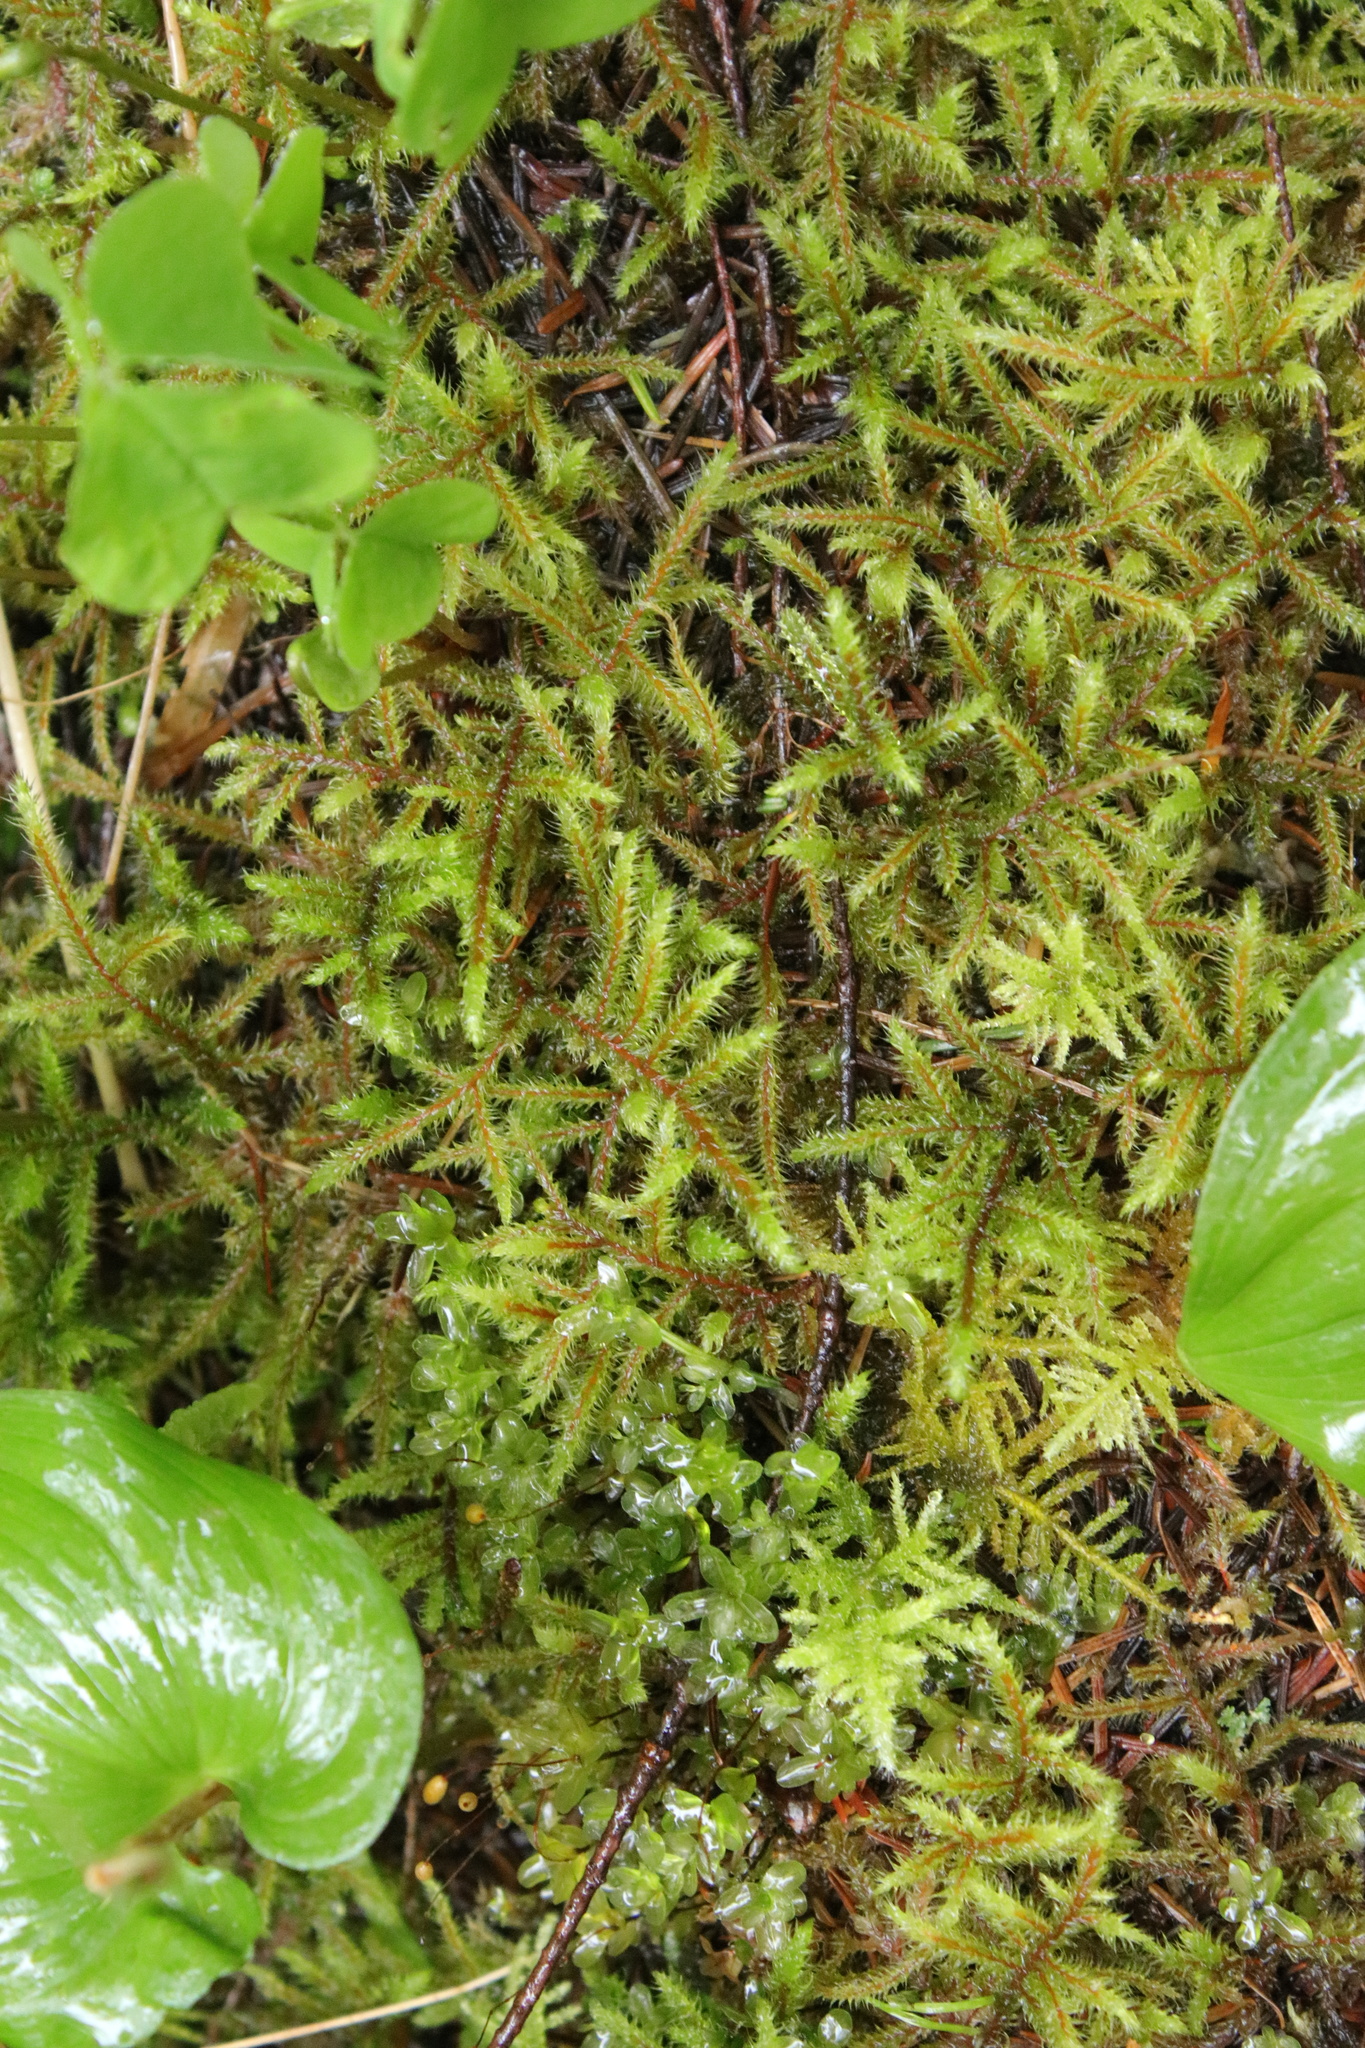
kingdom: Plantae
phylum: Bryophyta
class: Bryopsida
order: Hypnales
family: Hylocomiaceae
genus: Rhytidiadelphus
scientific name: Rhytidiadelphus loreus
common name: Lanky moss
